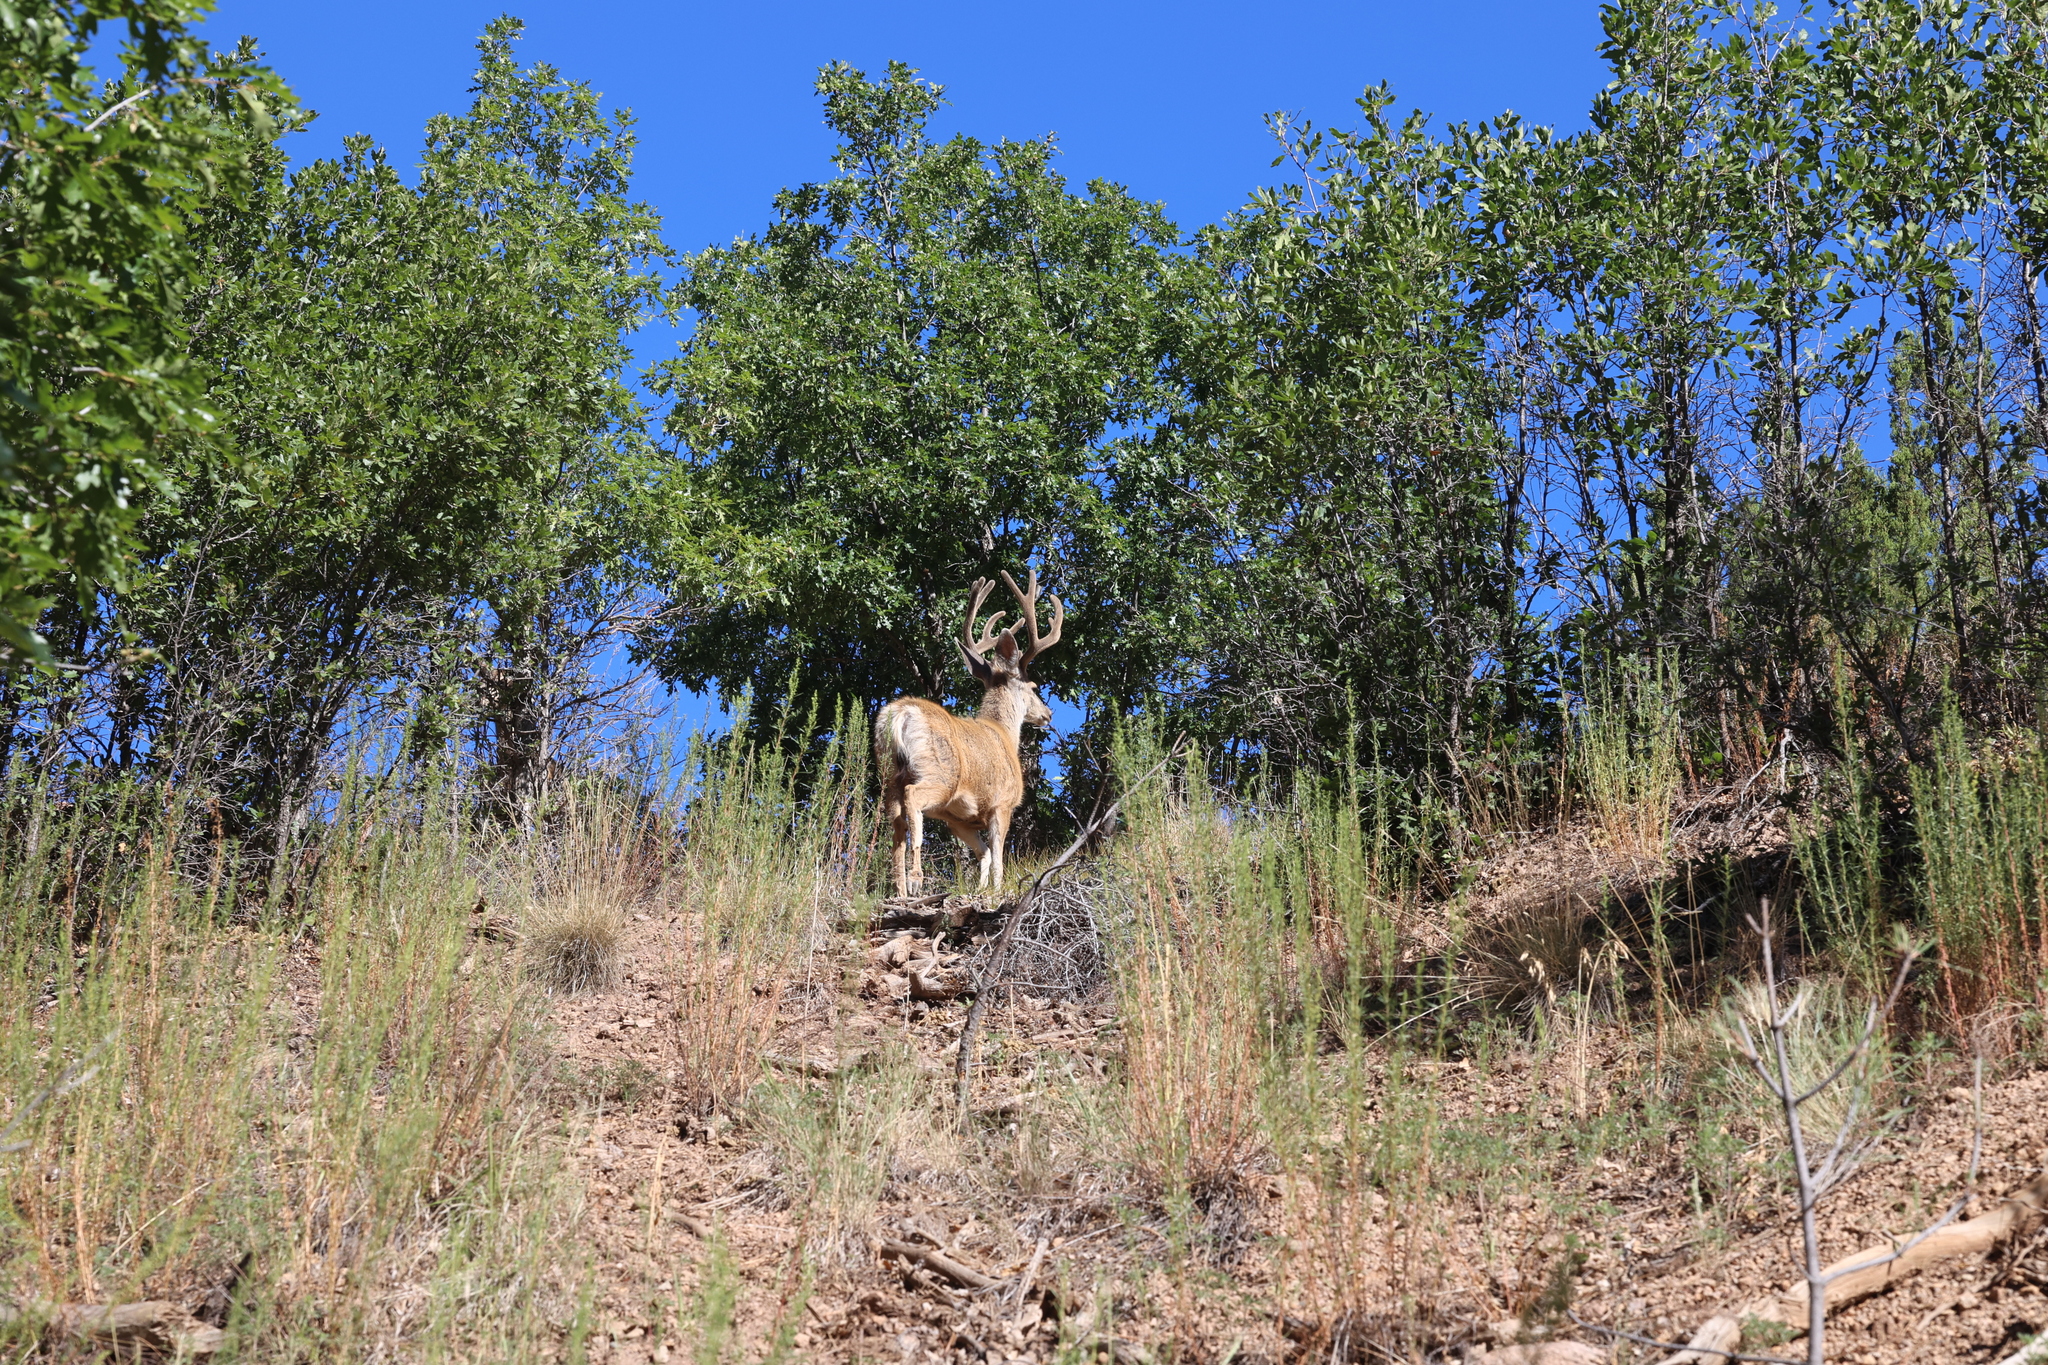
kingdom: Animalia
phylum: Chordata
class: Mammalia
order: Artiodactyla
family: Cervidae
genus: Odocoileus
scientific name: Odocoileus hemionus
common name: Mule deer
